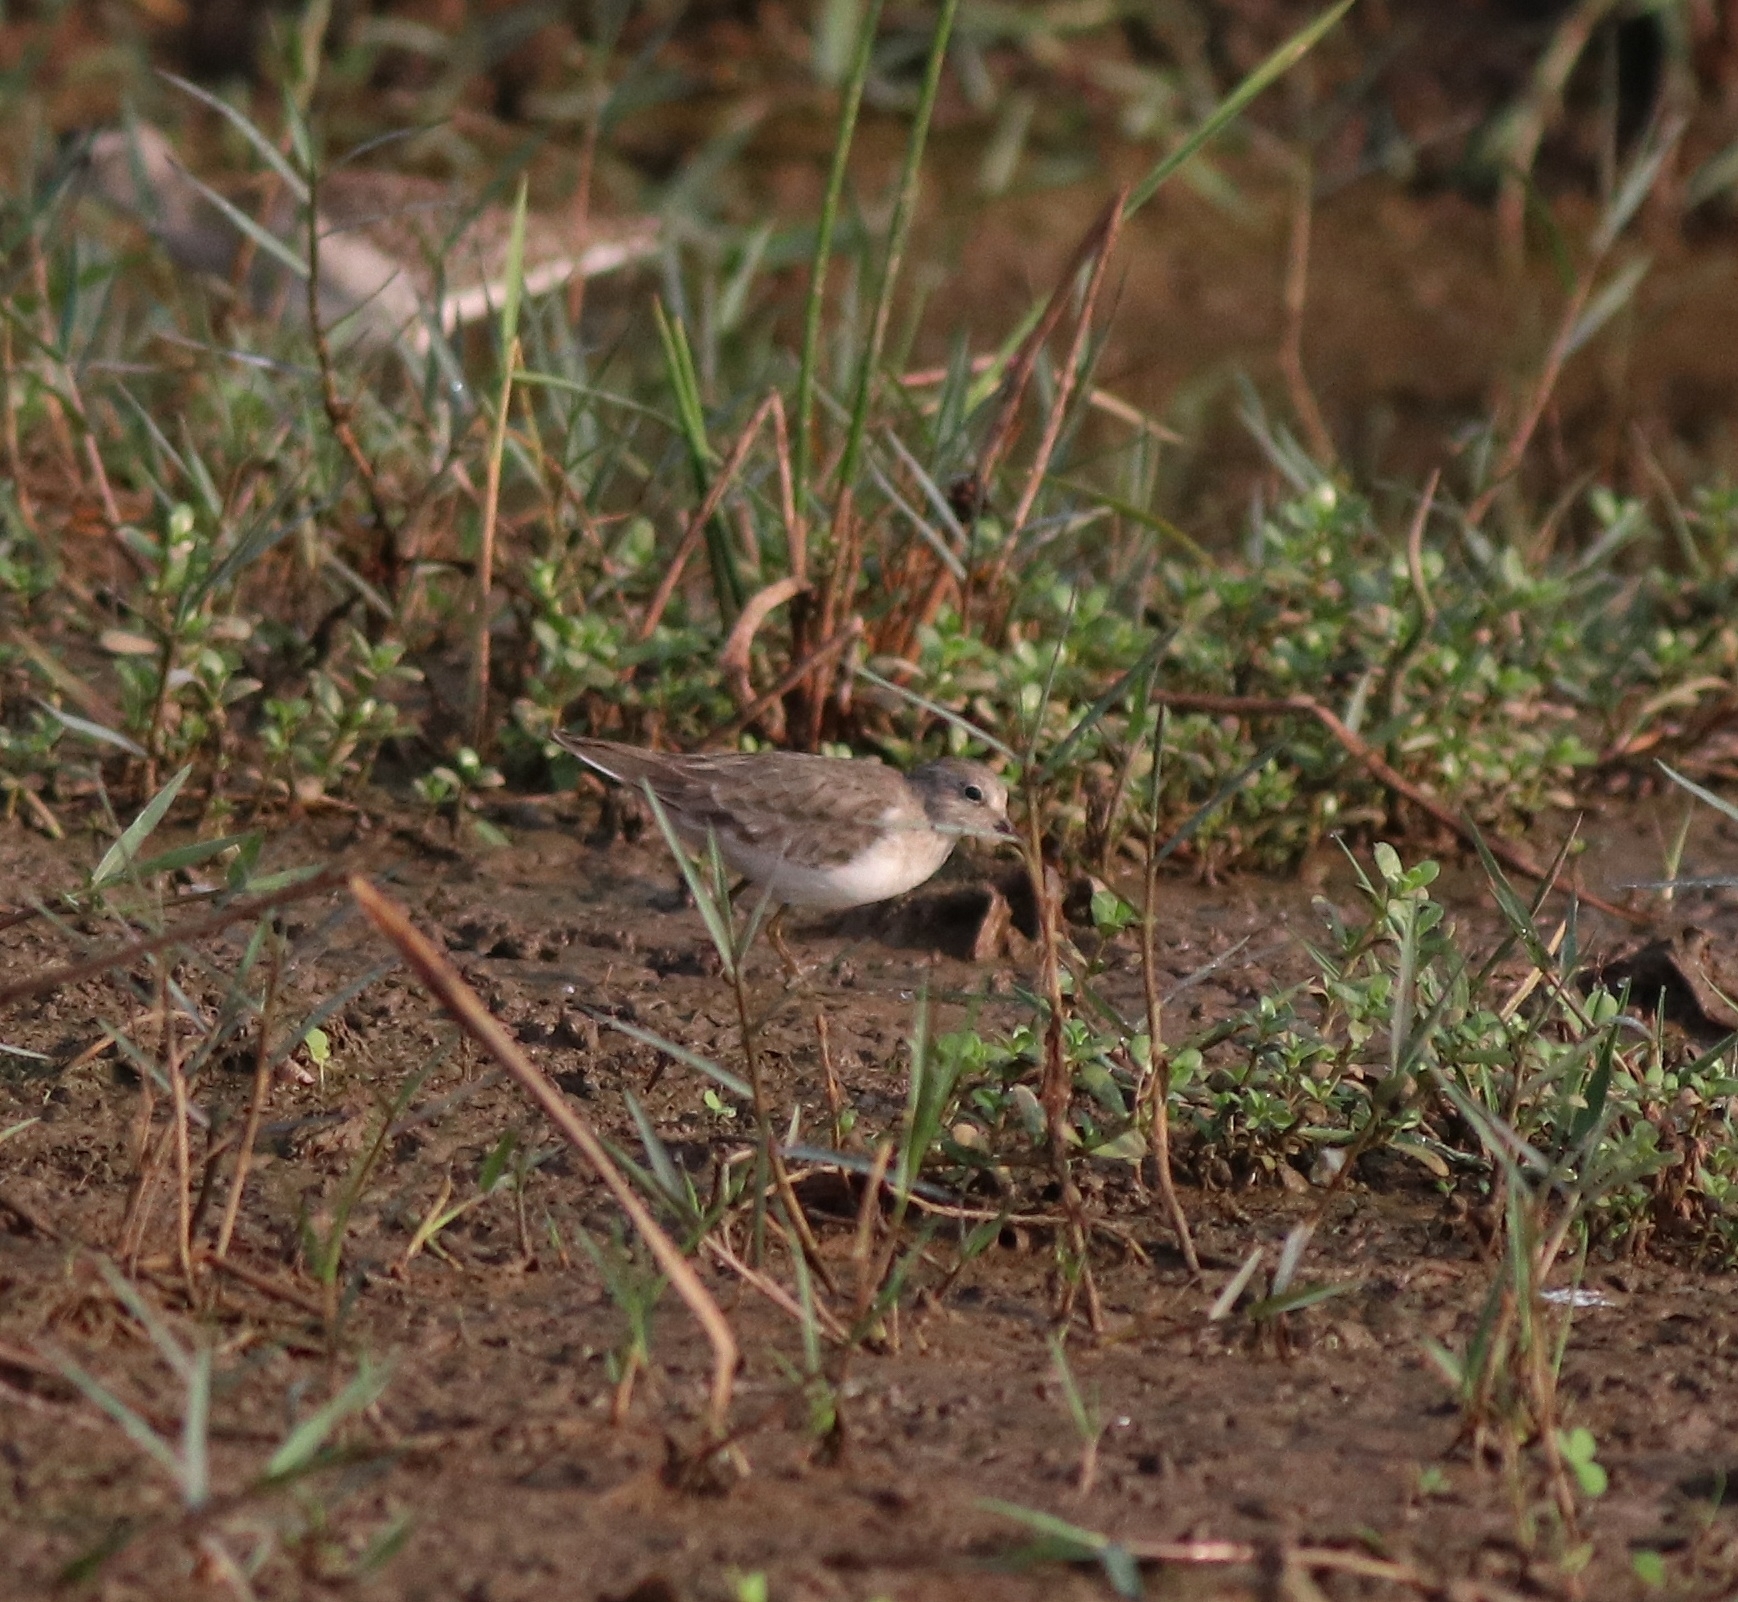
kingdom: Animalia
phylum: Chordata
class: Aves
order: Charadriiformes
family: Scolopacidae
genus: Calidris
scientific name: Calidris temminckii
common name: Temminck's stint
